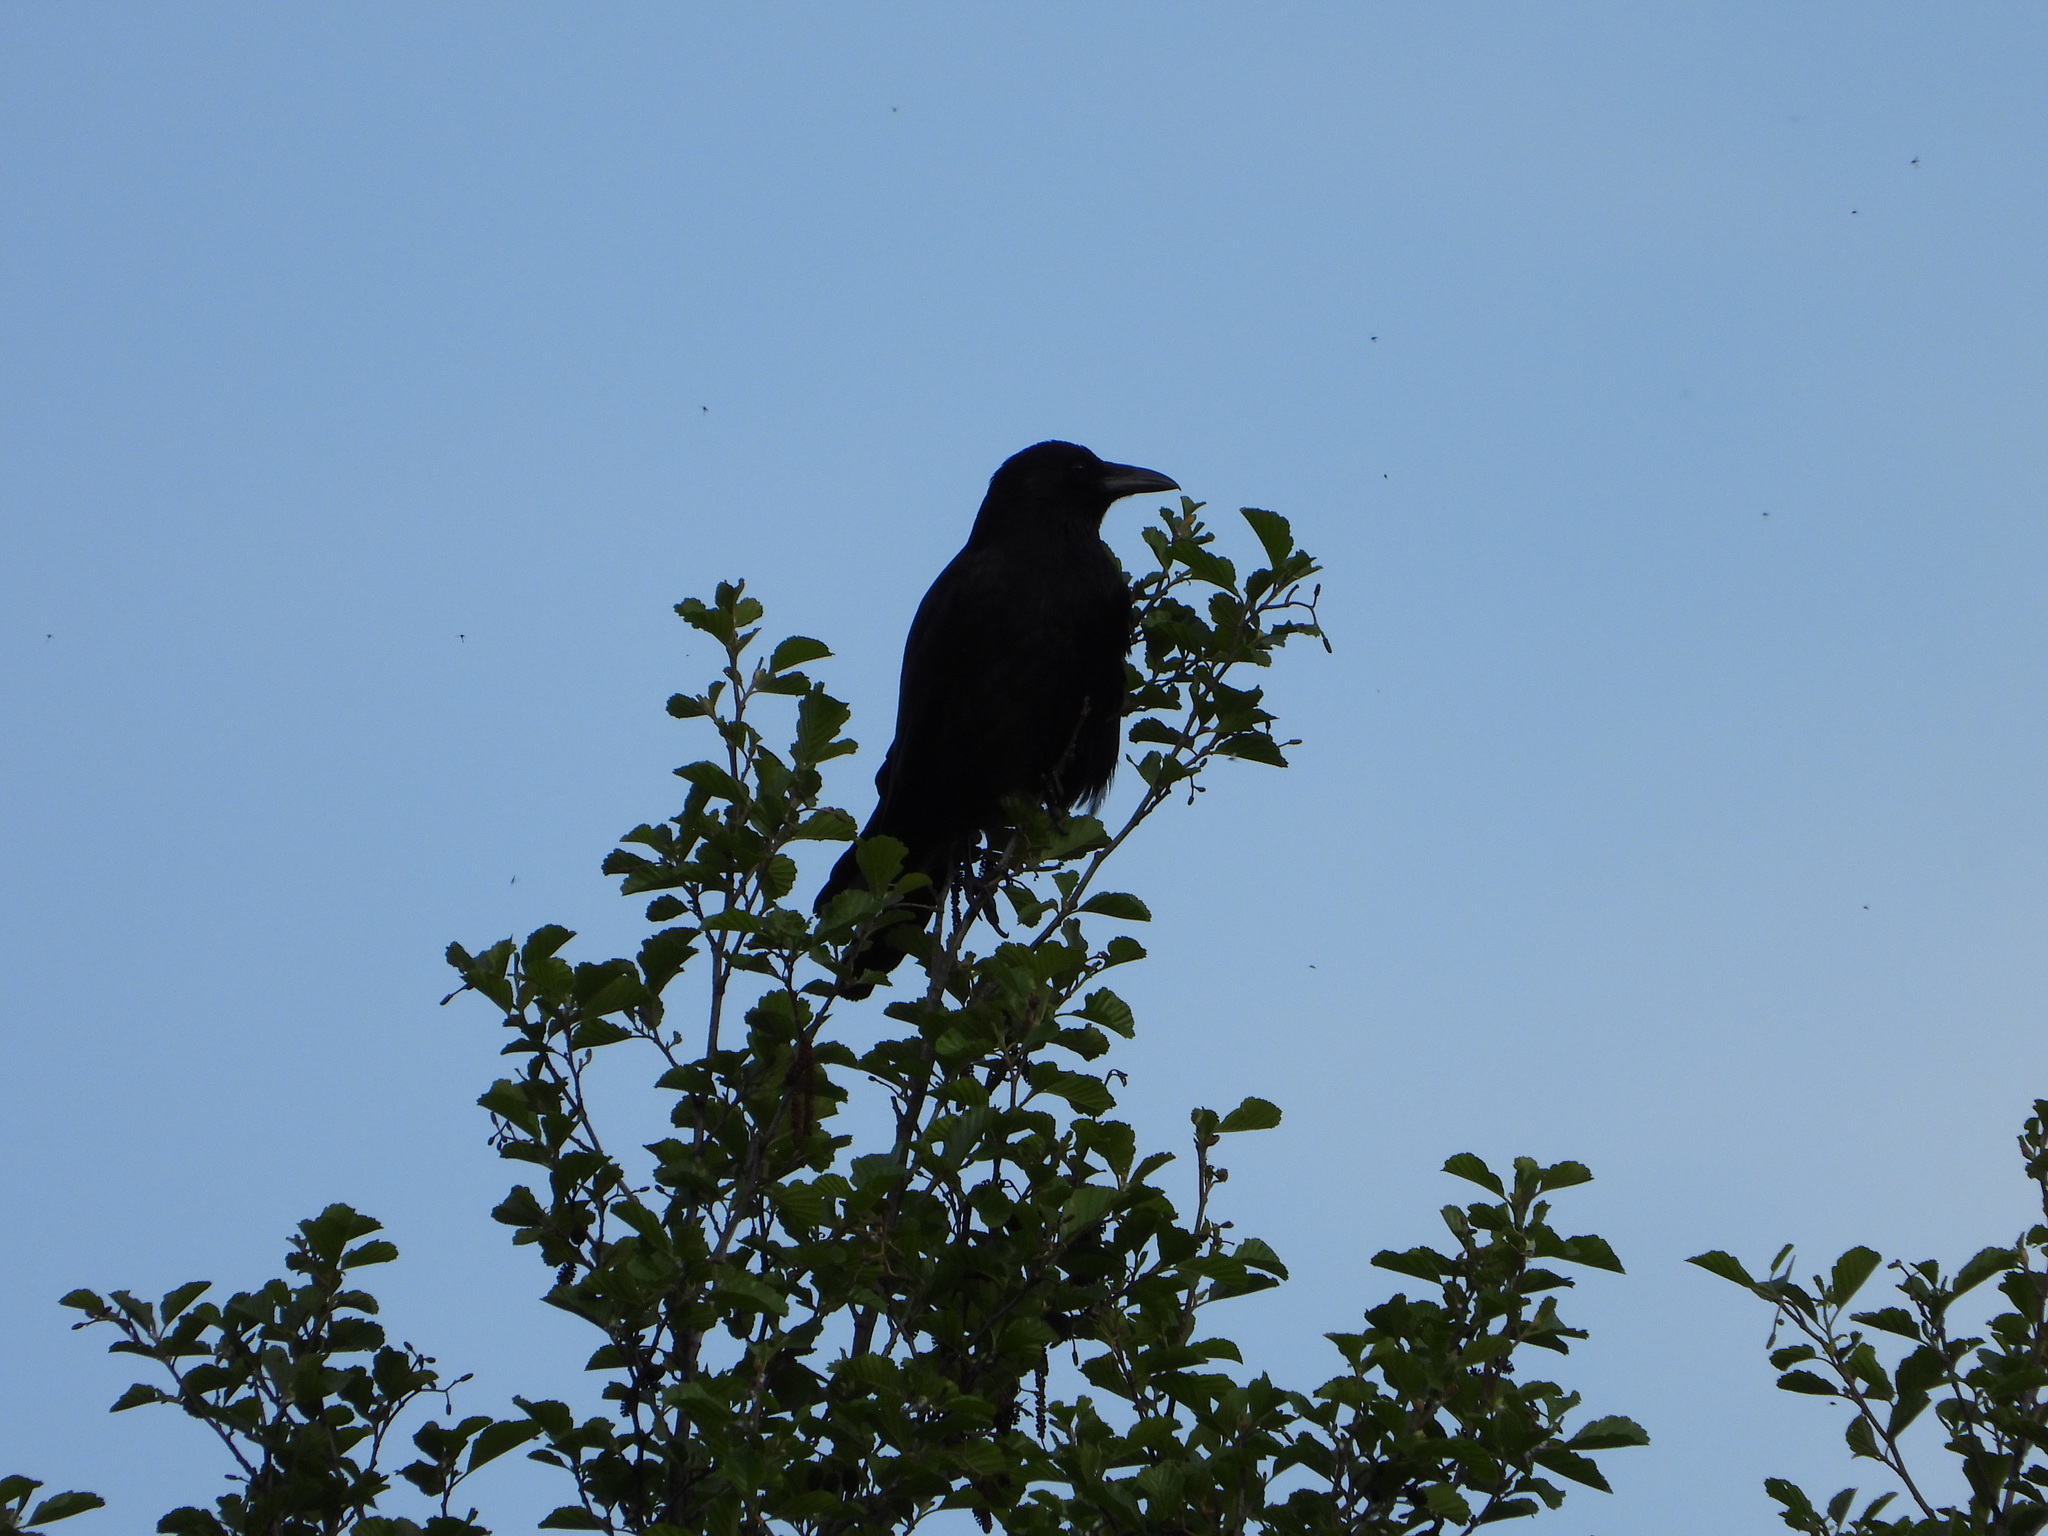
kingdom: Animalia
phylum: Chordata
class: Aves
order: Passeriformes
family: Corvidae
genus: Corvus
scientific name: Corvus corone
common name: Carrion crow
